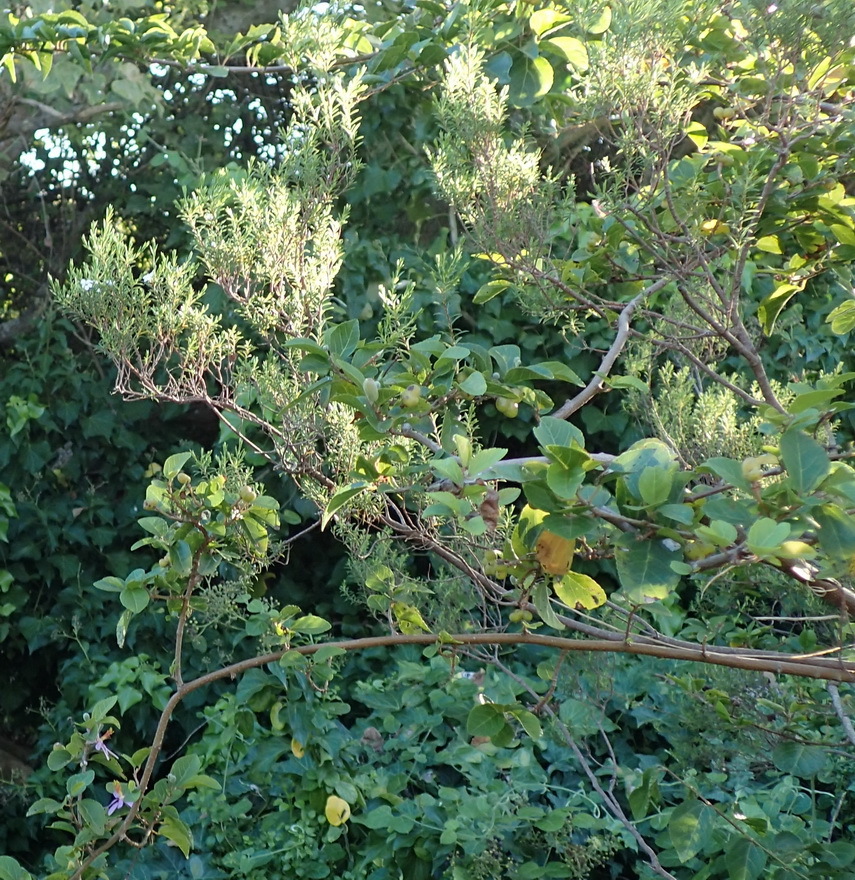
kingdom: Plantae
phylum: Tracheophyta
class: Magnoliopsida
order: Sapindales
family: Rutaceae
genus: Coleonema
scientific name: Coleonema album
